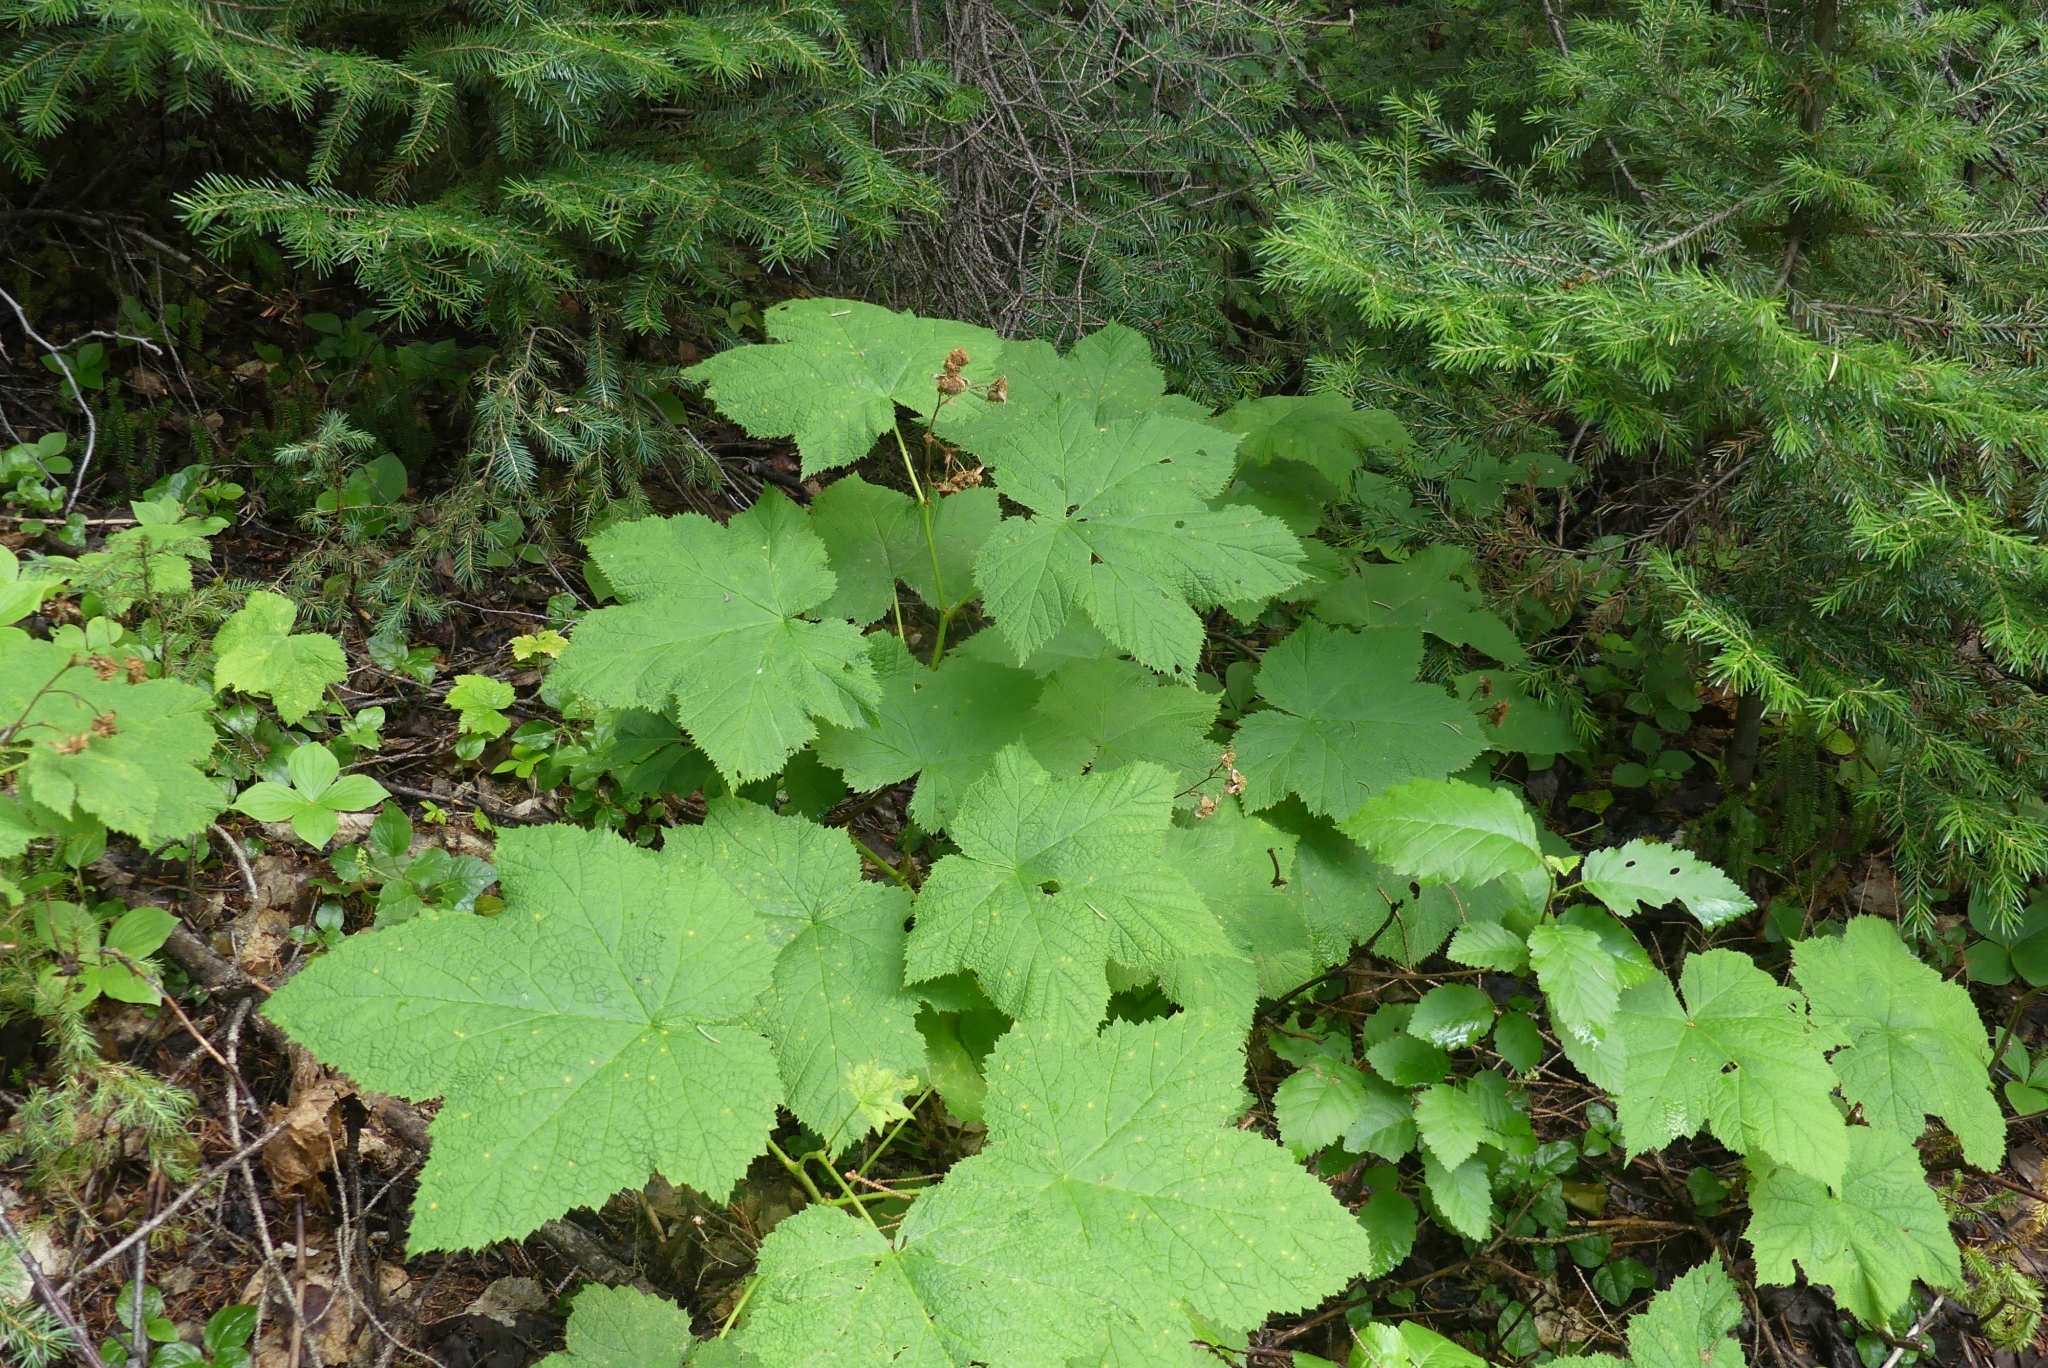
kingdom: Plantae
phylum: Tracheophyta
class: Magnoliopsida
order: Rosales
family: Rosaceae
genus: Rubus
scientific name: Rubus parviflorus
